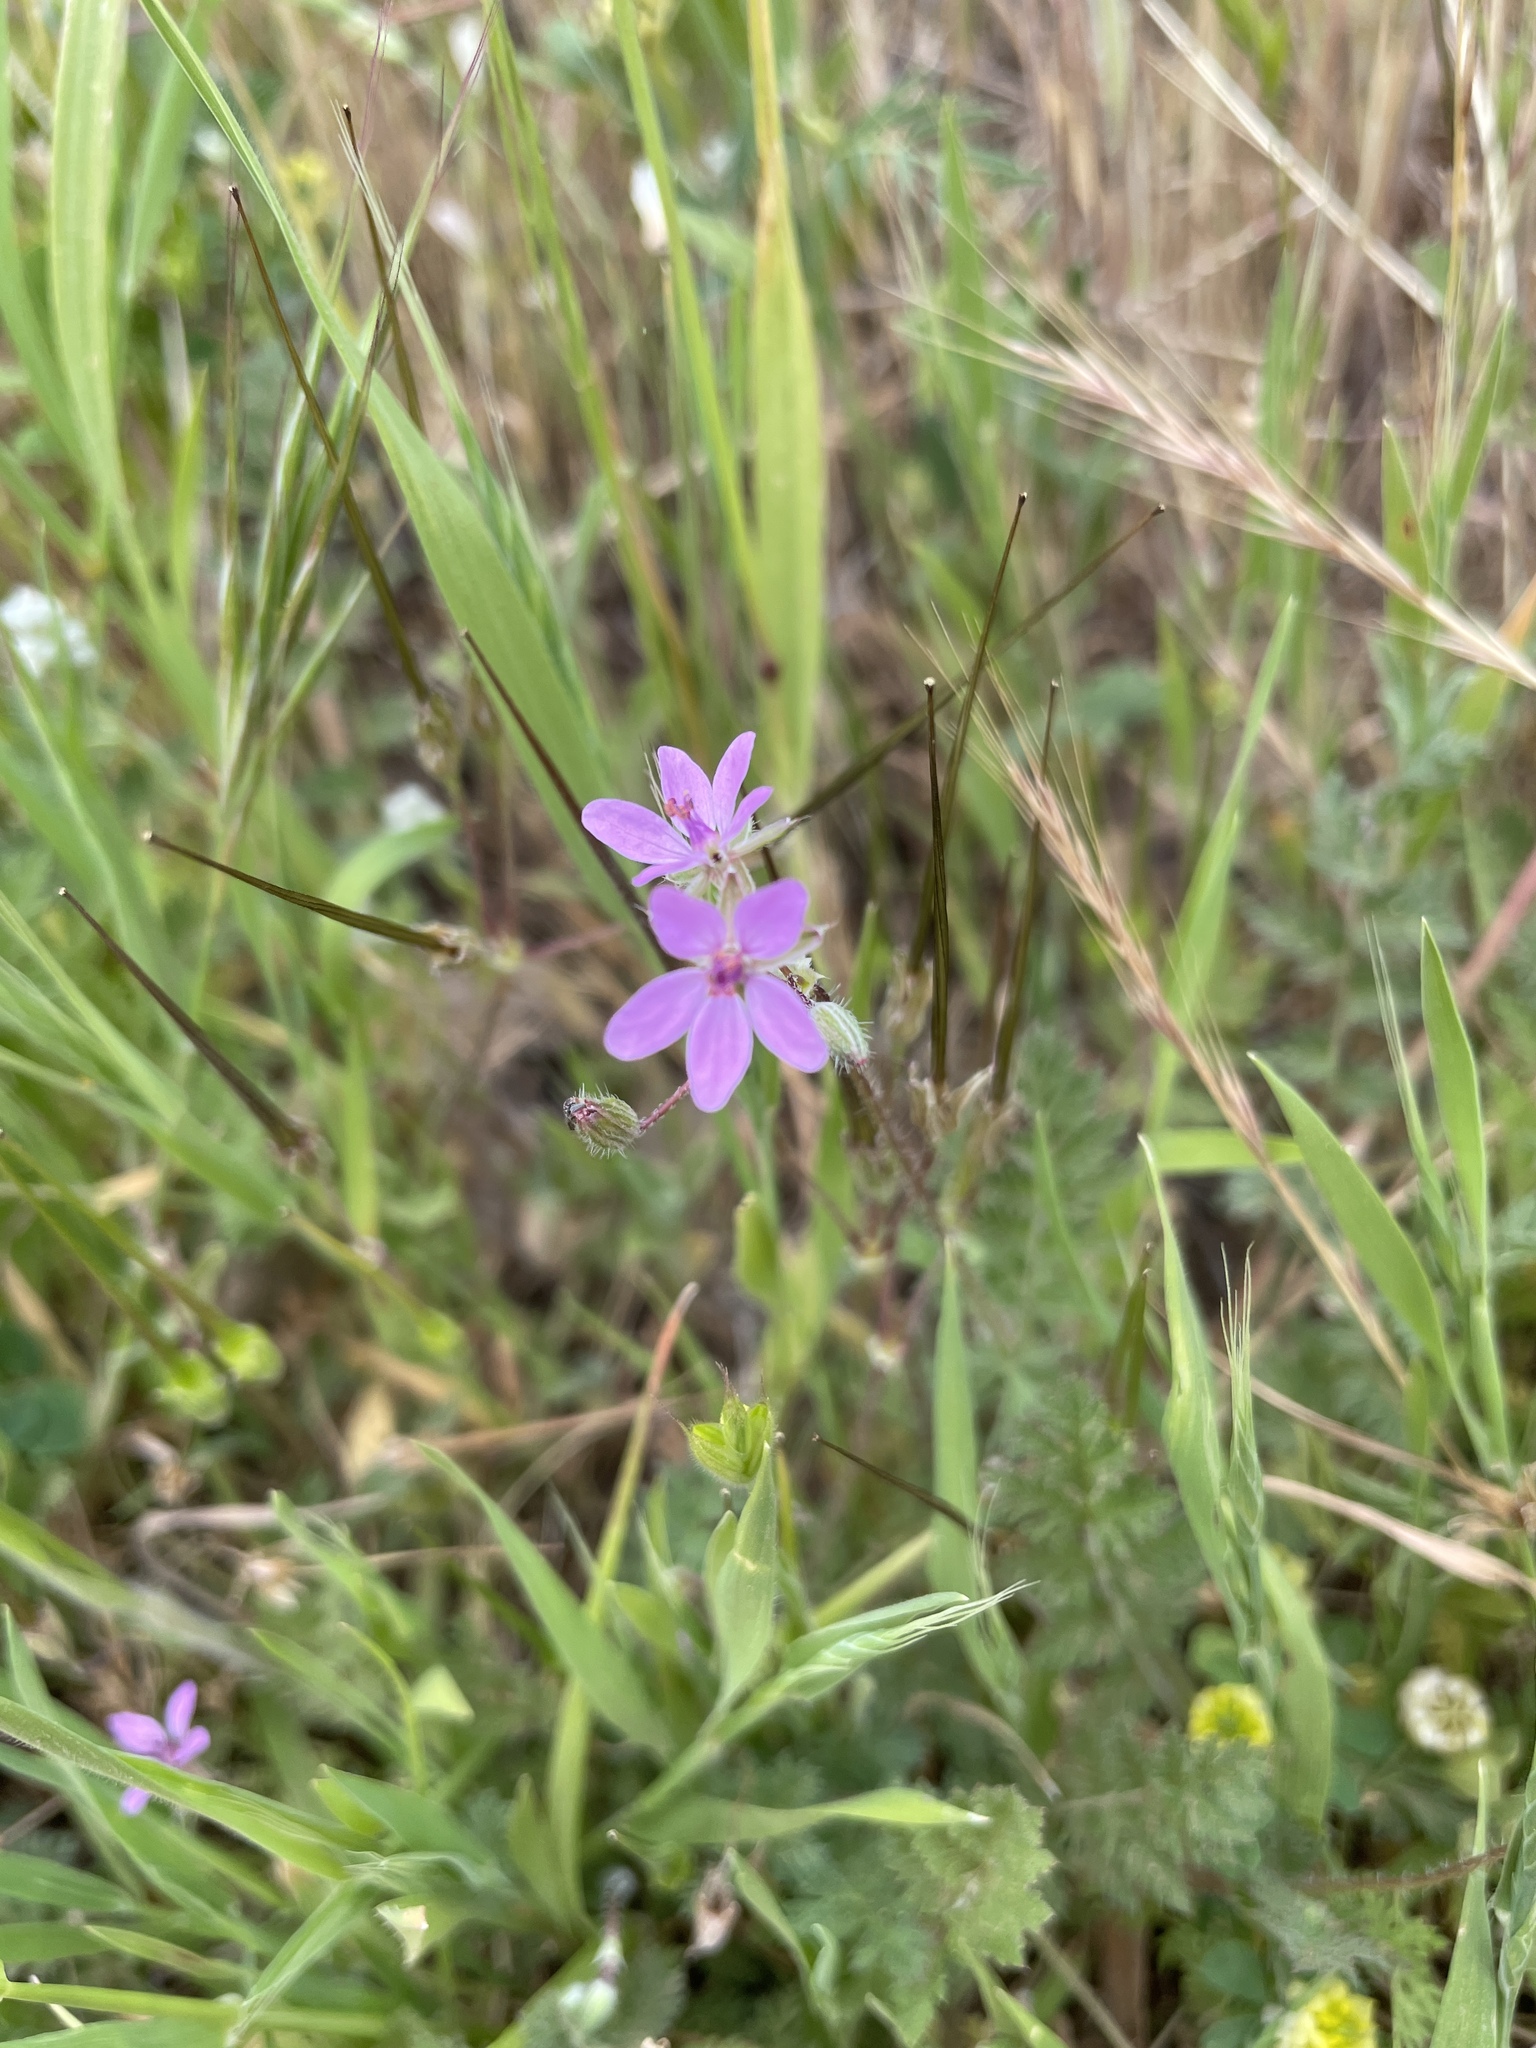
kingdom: Plantae
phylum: Tracheophyta
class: Magnoliopsida
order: Geraniales
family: Geraniaceae
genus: Erodium
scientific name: Erodium cicutarium
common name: Common stork's-bill
